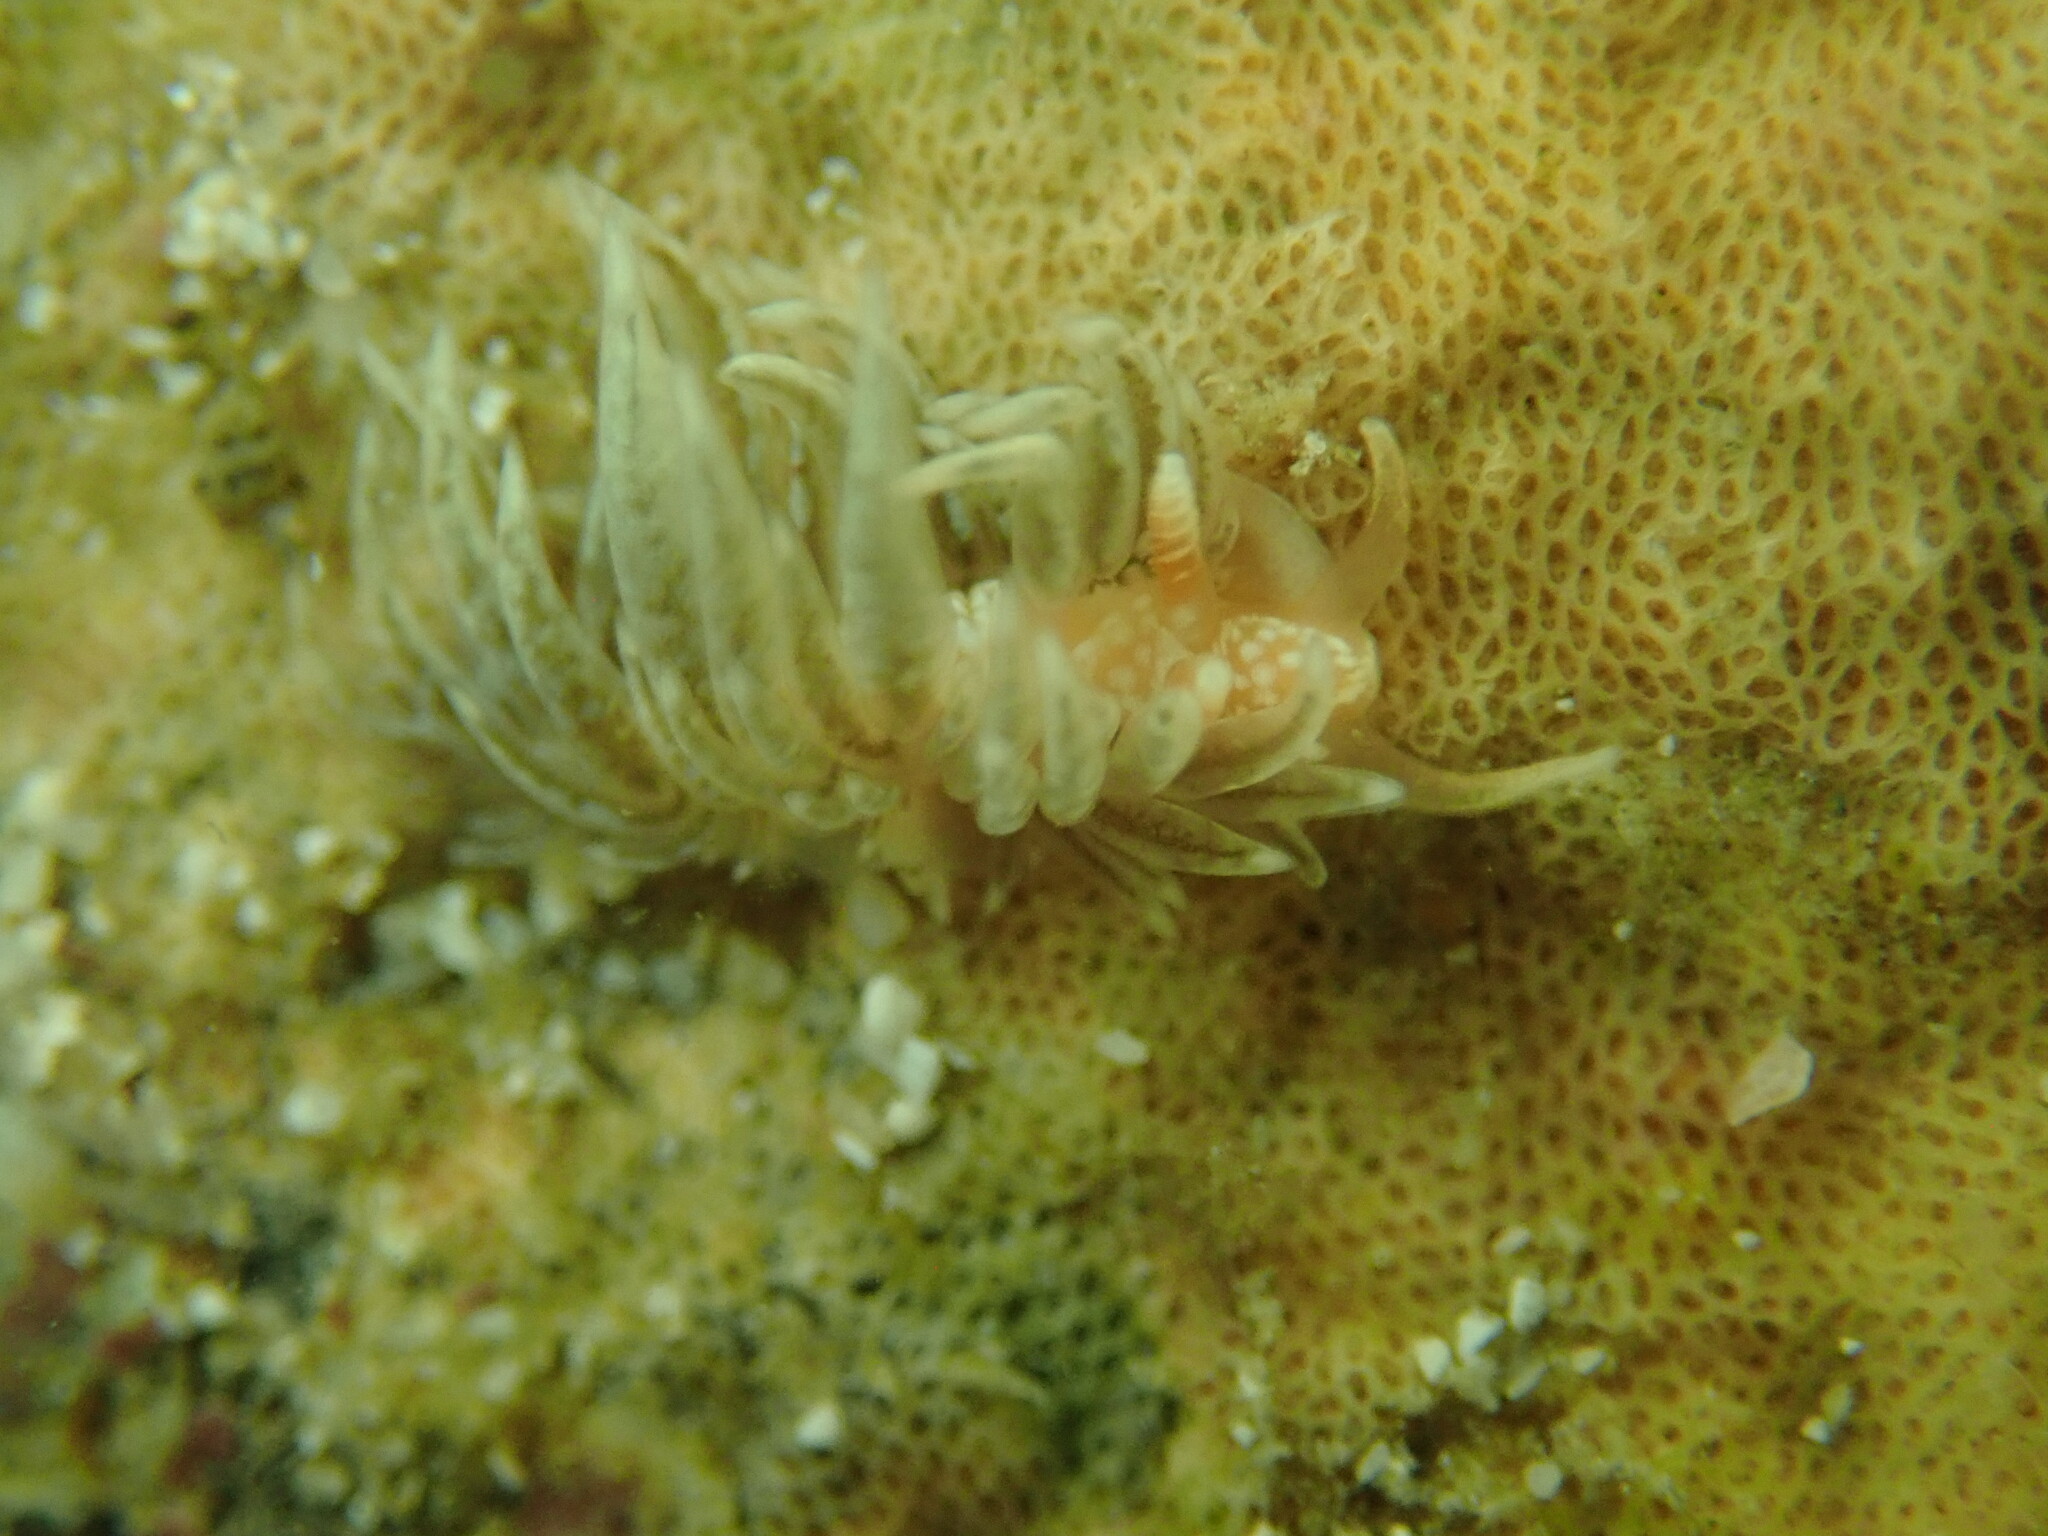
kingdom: Animalia
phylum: Mollusca
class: Gastropoda
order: Nudibranchia
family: Aeolidiidae
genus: Spurilla
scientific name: Spurilla braziliana
